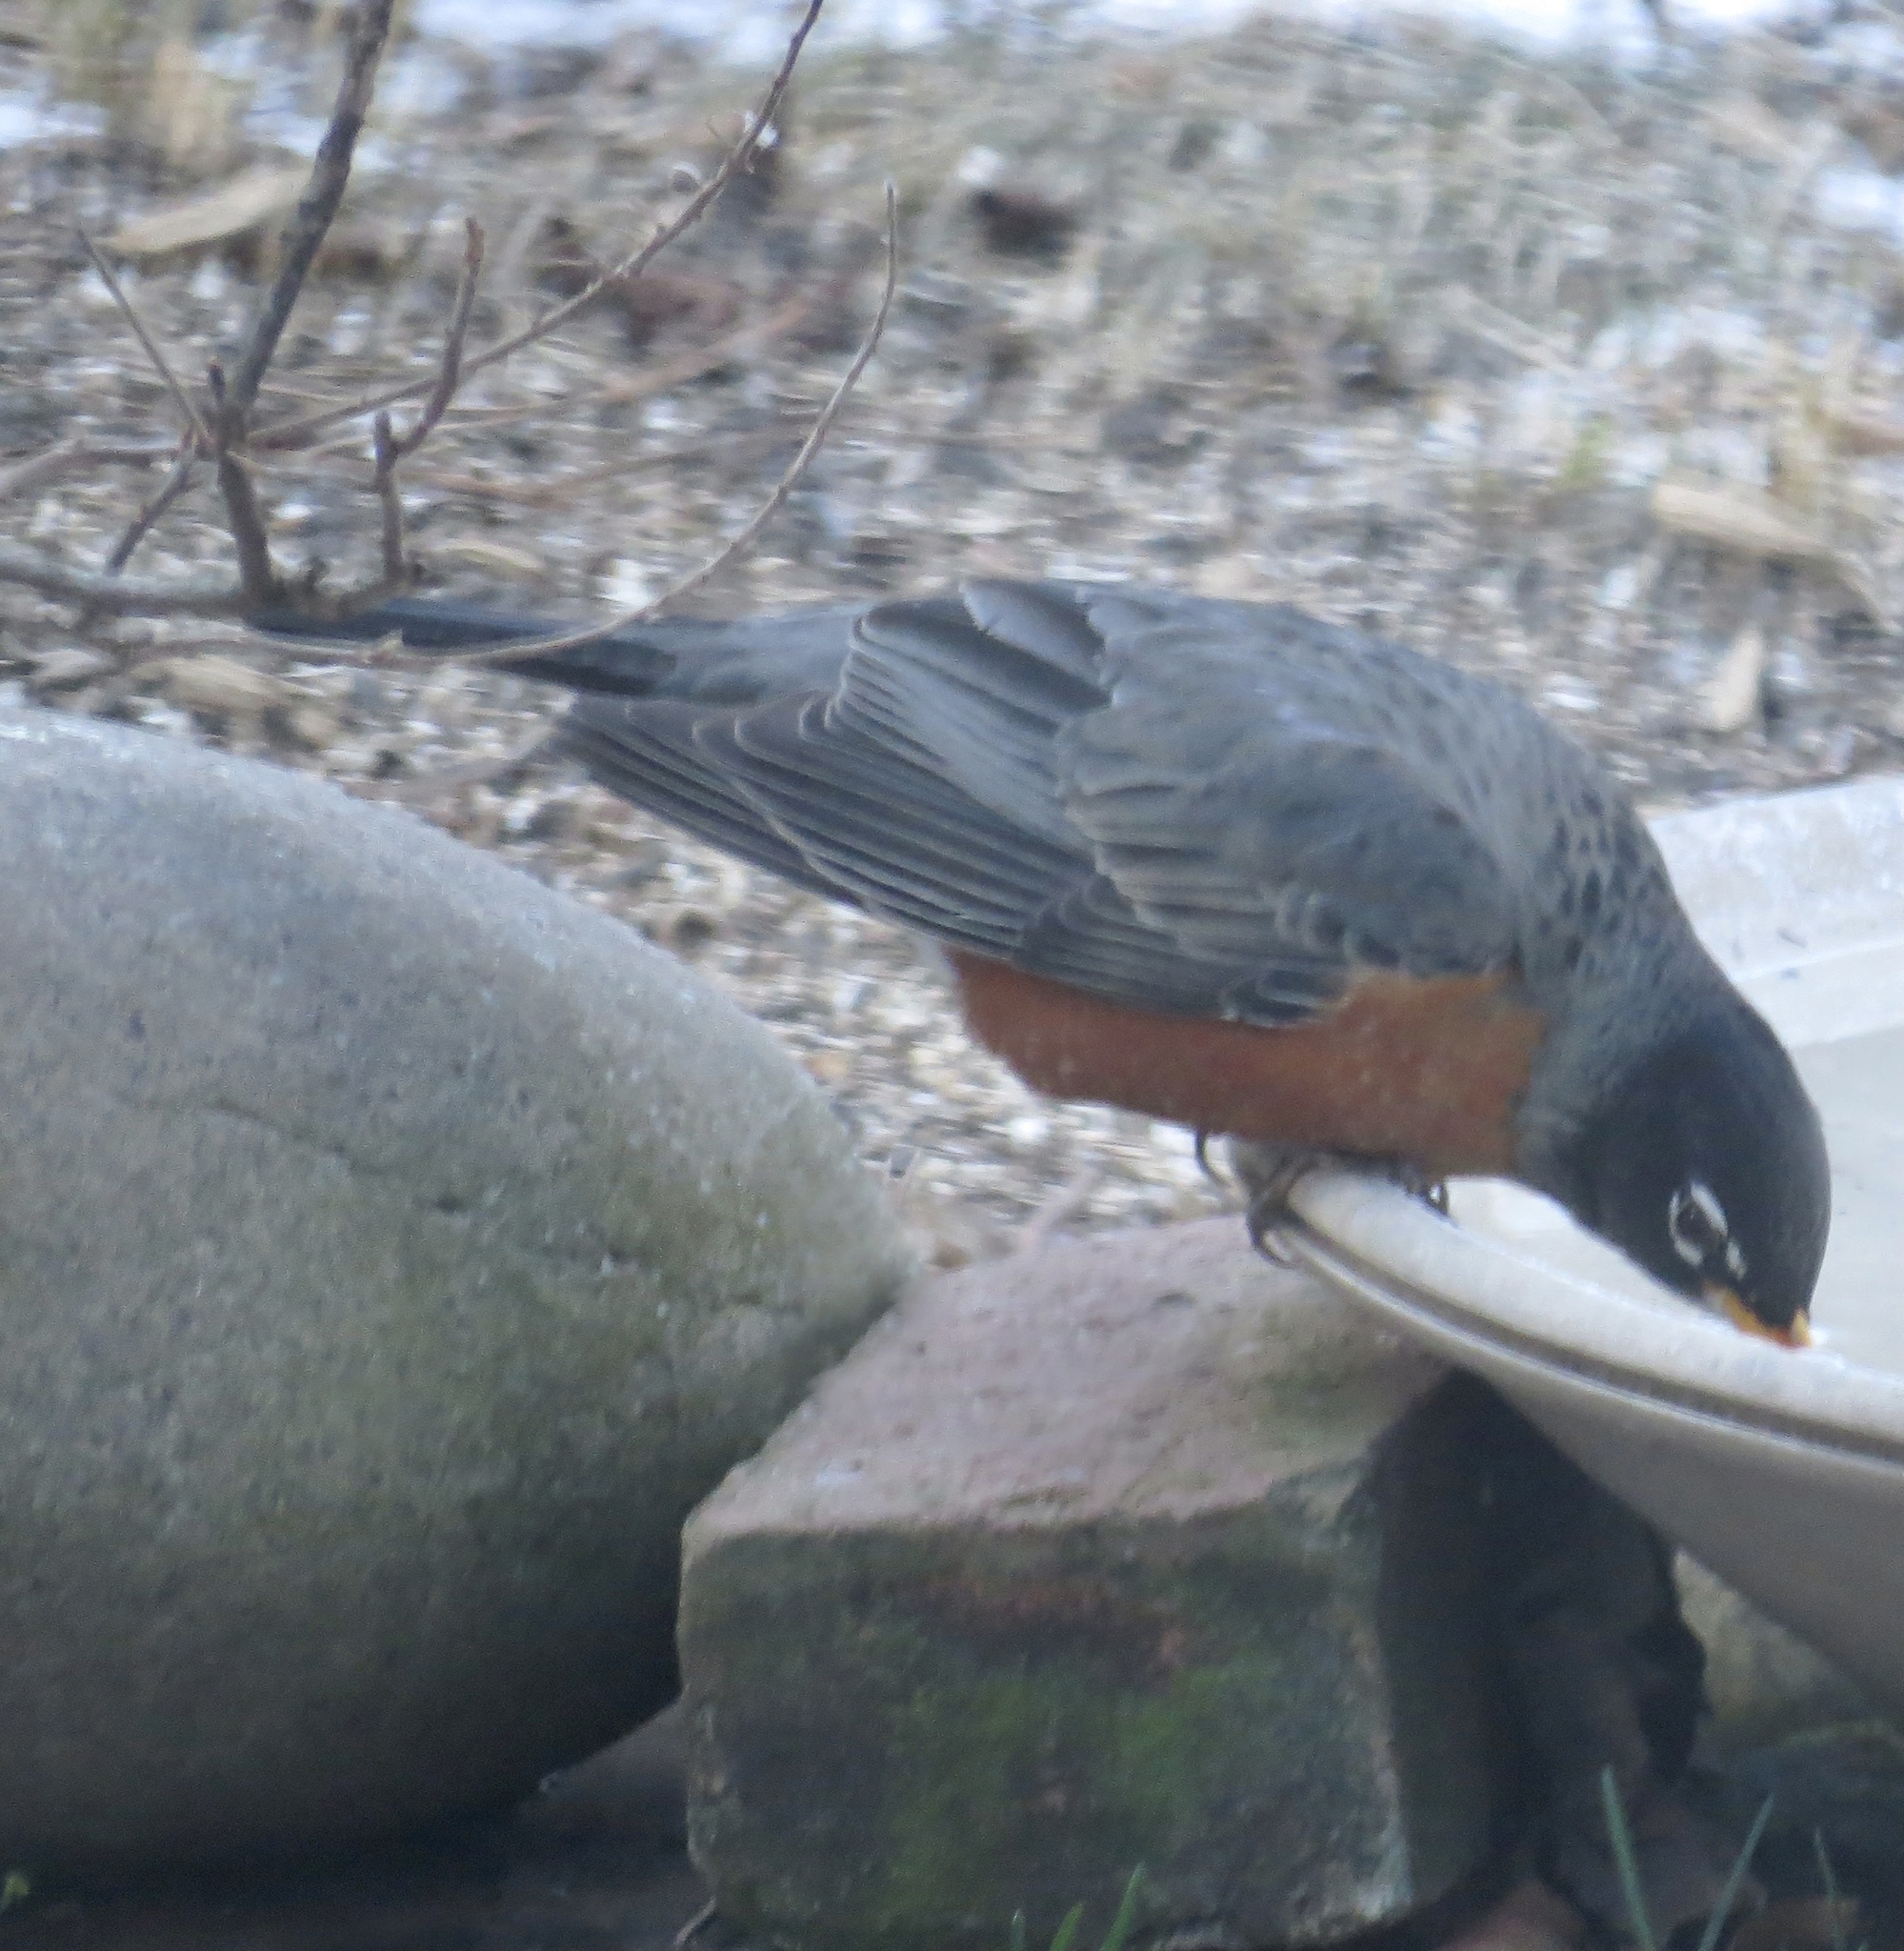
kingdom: Animalia
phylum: Chordata
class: Aves
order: Passeriformes
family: Turdidae
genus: Turdus
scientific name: Turdus migratorius
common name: American robin
